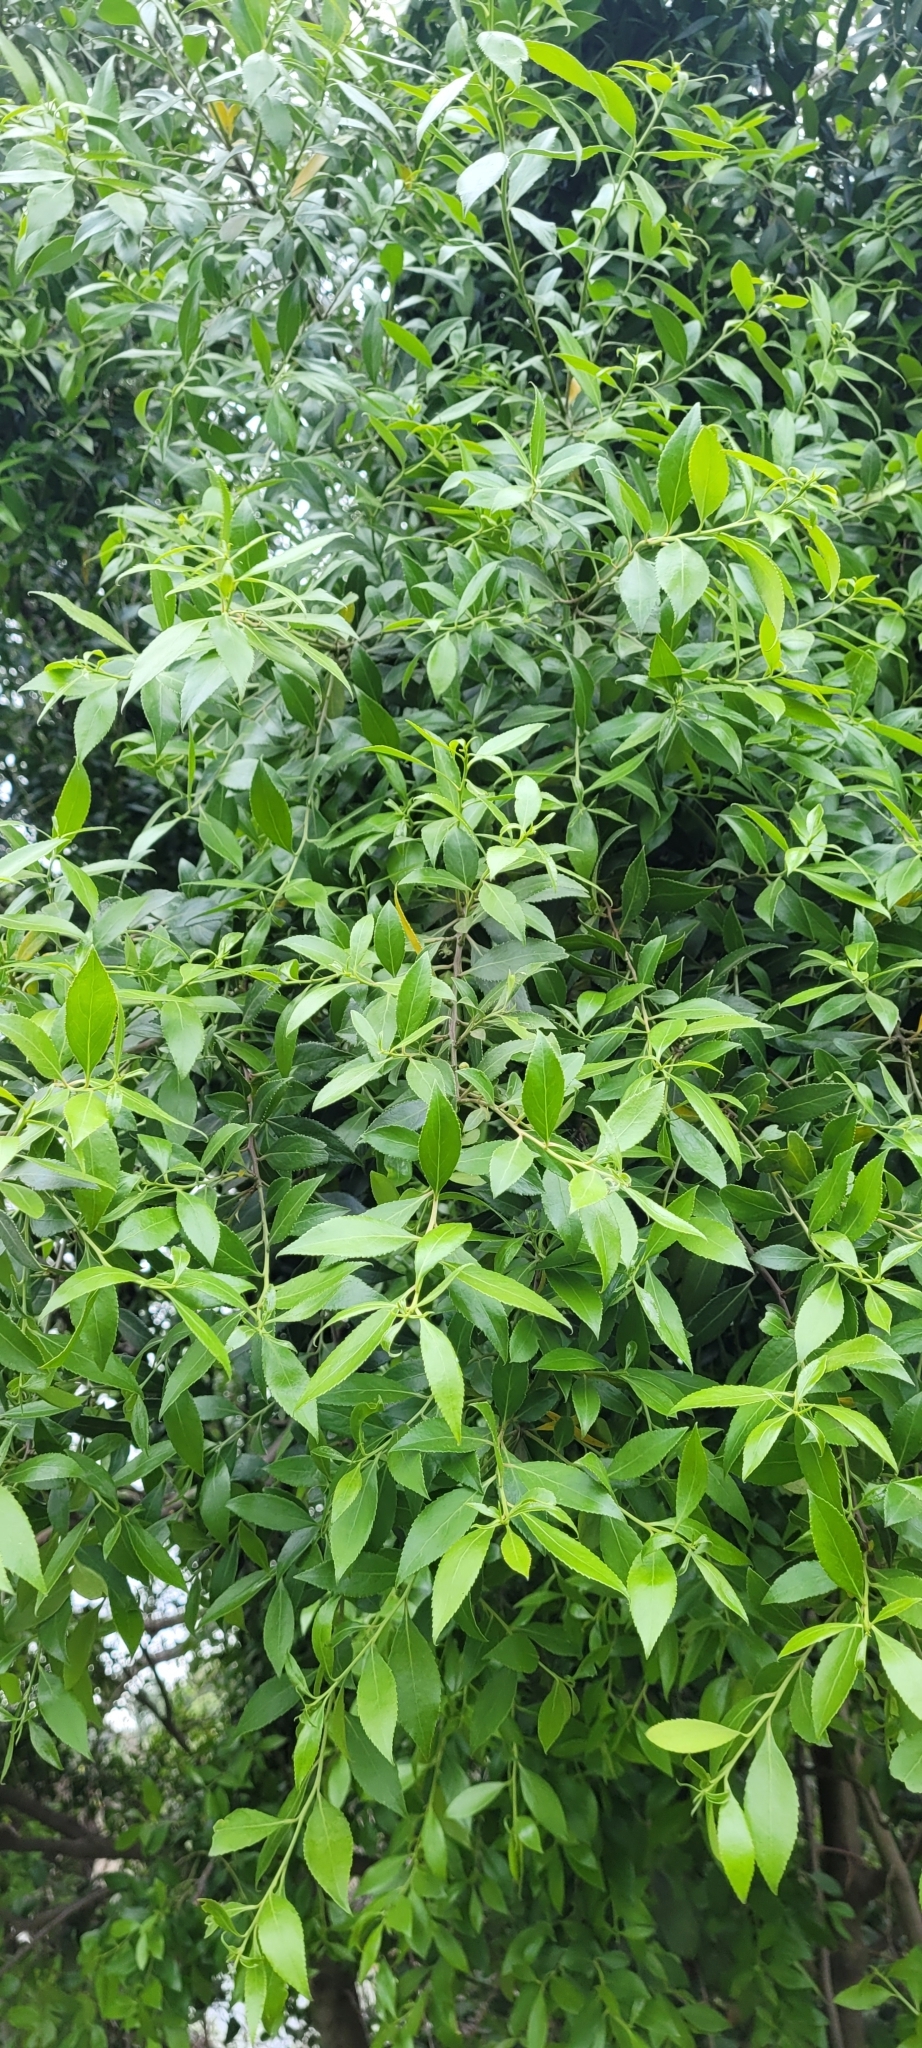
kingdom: Plantae
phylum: Tracheophyta
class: Magnoliopsida
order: Celastrales
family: Celastraceae
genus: Maytenus
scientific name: Maytenus boaria
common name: Mayten
